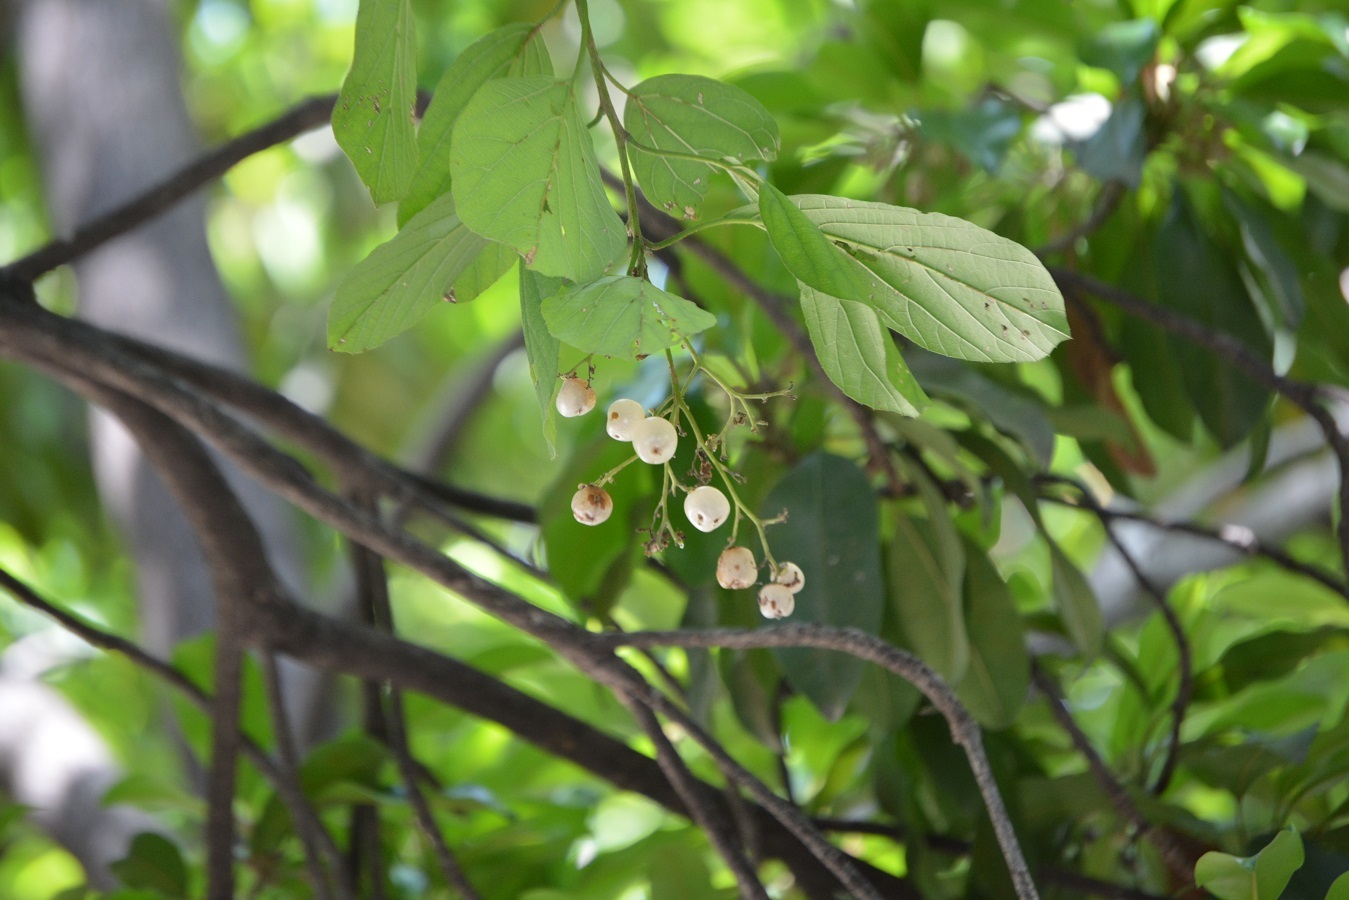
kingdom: Plantae
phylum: Tracheophyta
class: Magnoliopsida
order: Boraginales
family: Cordiaceae
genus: Cordia
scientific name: Cordia dentata
